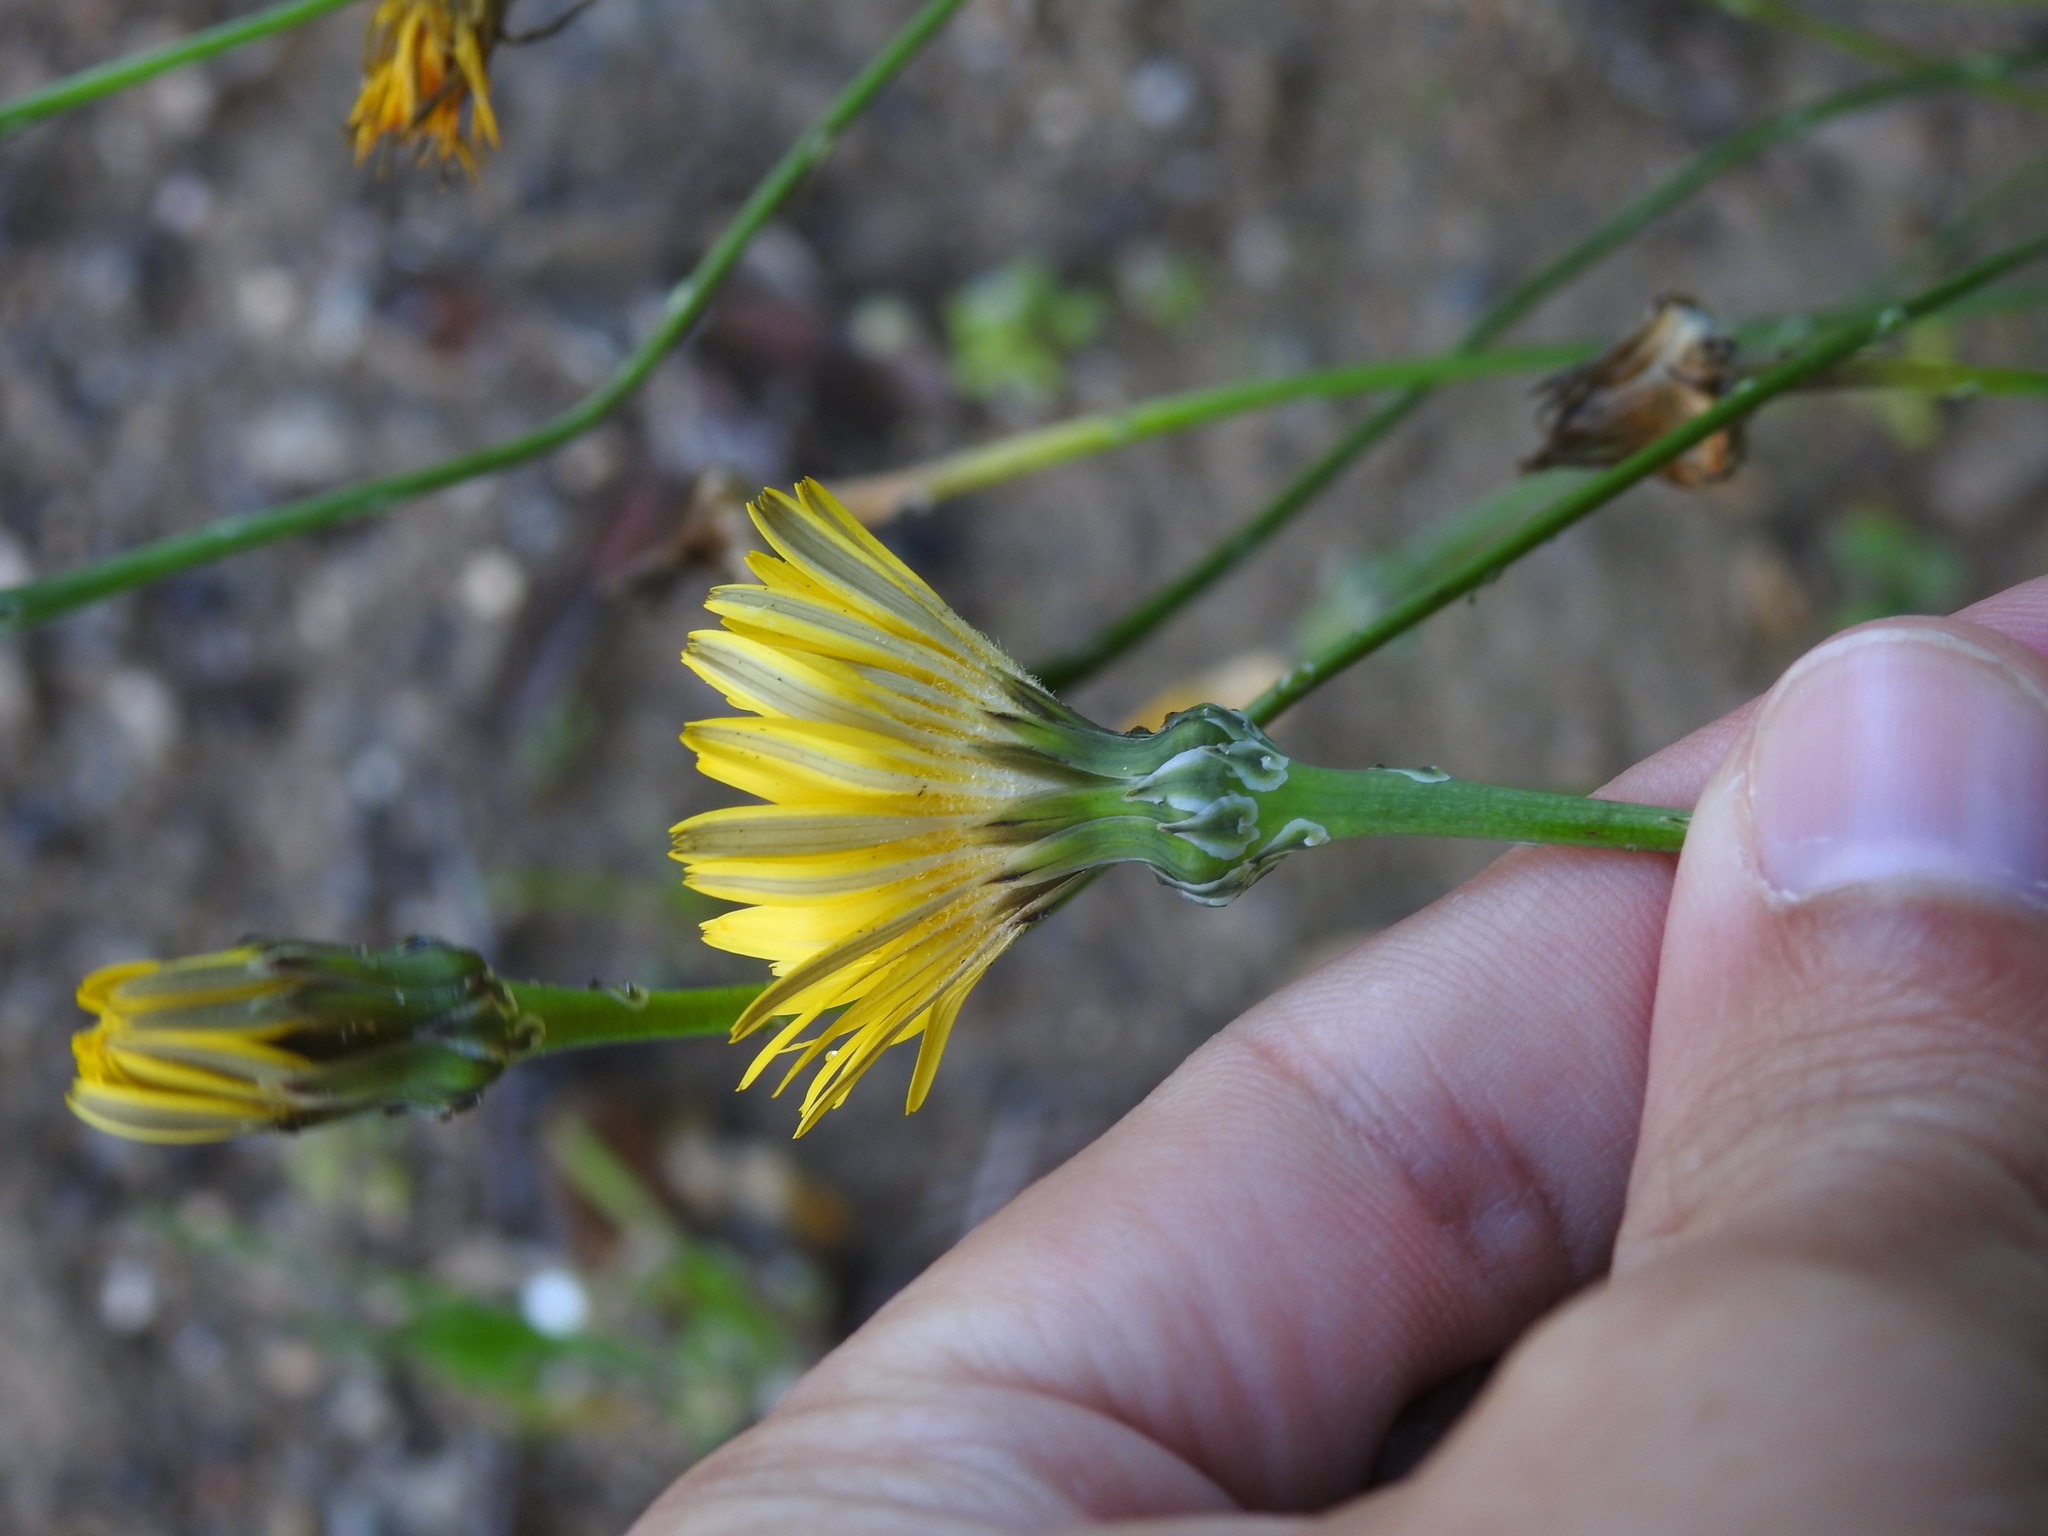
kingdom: Plantae
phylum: Tracheophyta
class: Magnoliopsida
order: Asterales
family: Asteraceae
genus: Reichardia
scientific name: Reichardia picroides
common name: Common brighteyes
